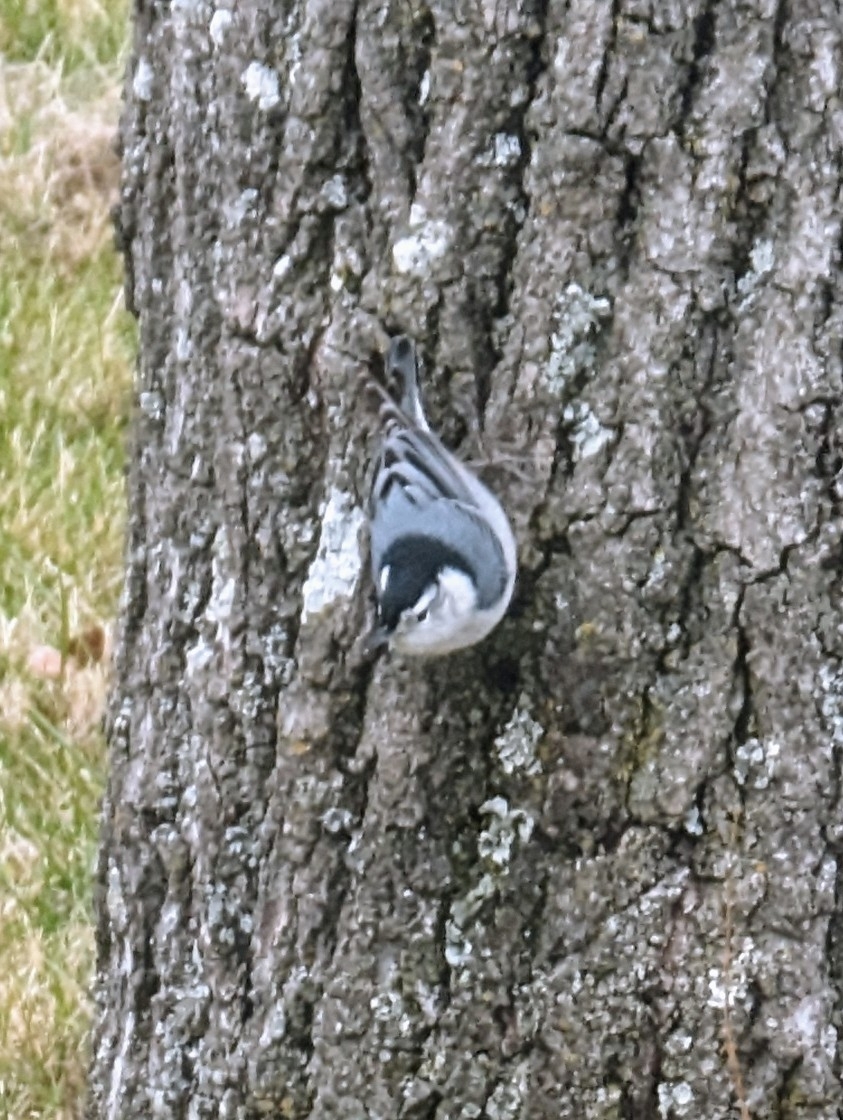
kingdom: Animalia
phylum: Chordata
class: Aves
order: Passeriformes
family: Sittidae
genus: Sitta
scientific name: Sitta carolinensis
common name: White-breasted nuthatch
